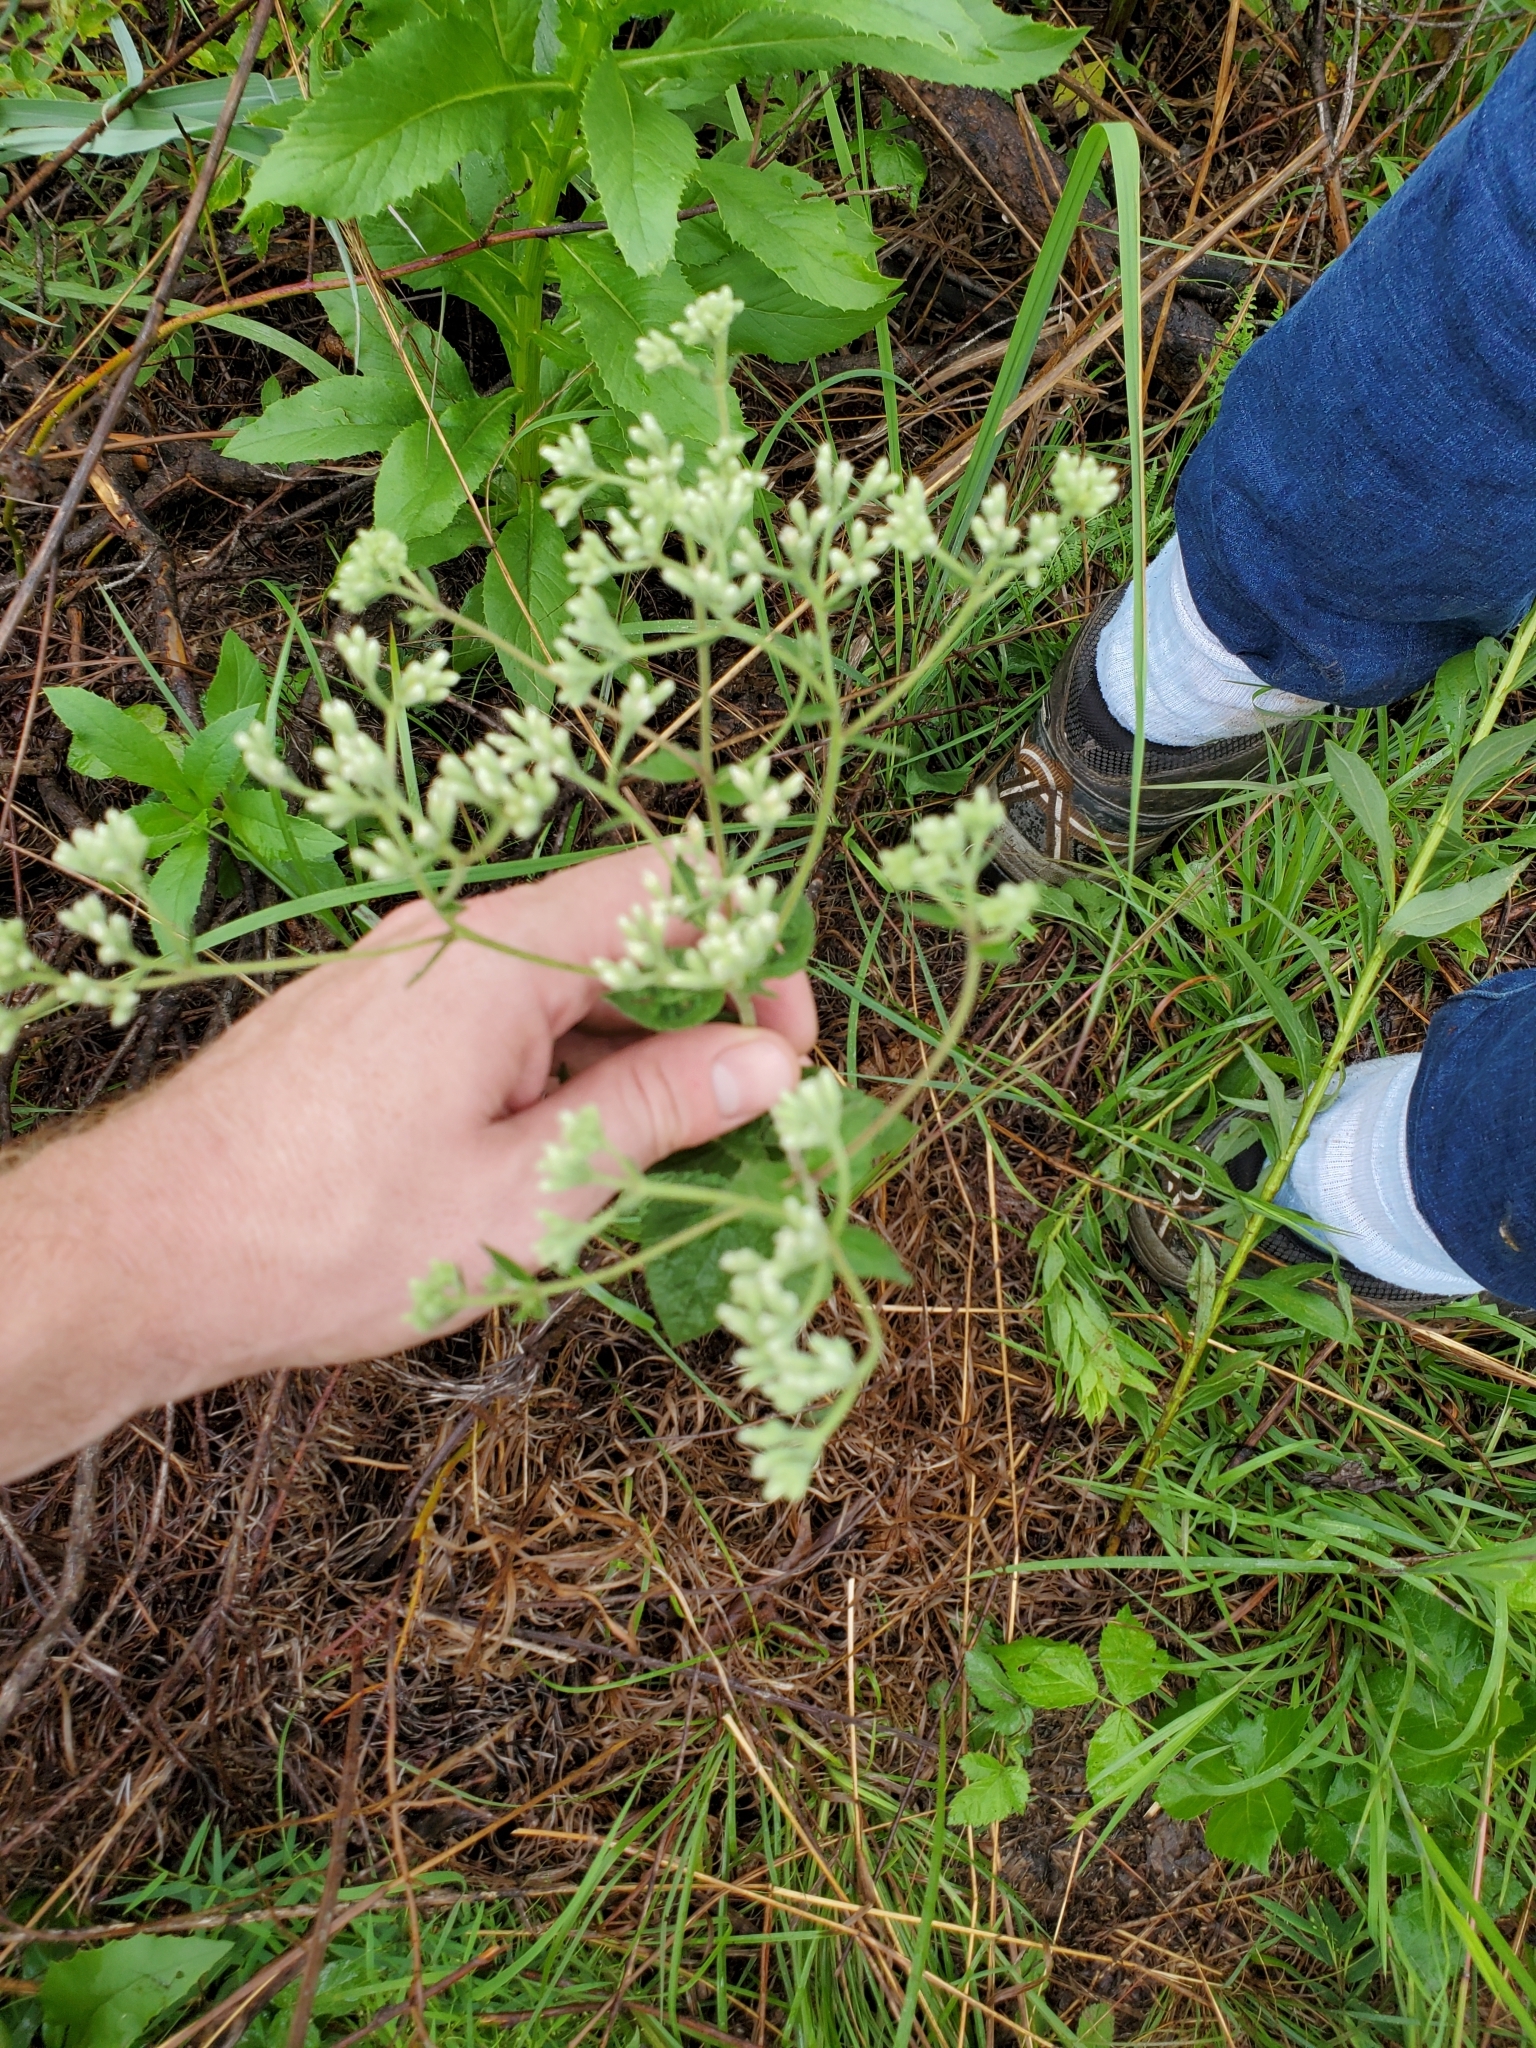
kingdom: Plantae
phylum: Tracheophyta
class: Magnoliopsida
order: Asterales
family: Asteraceae
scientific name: Asteraceae
